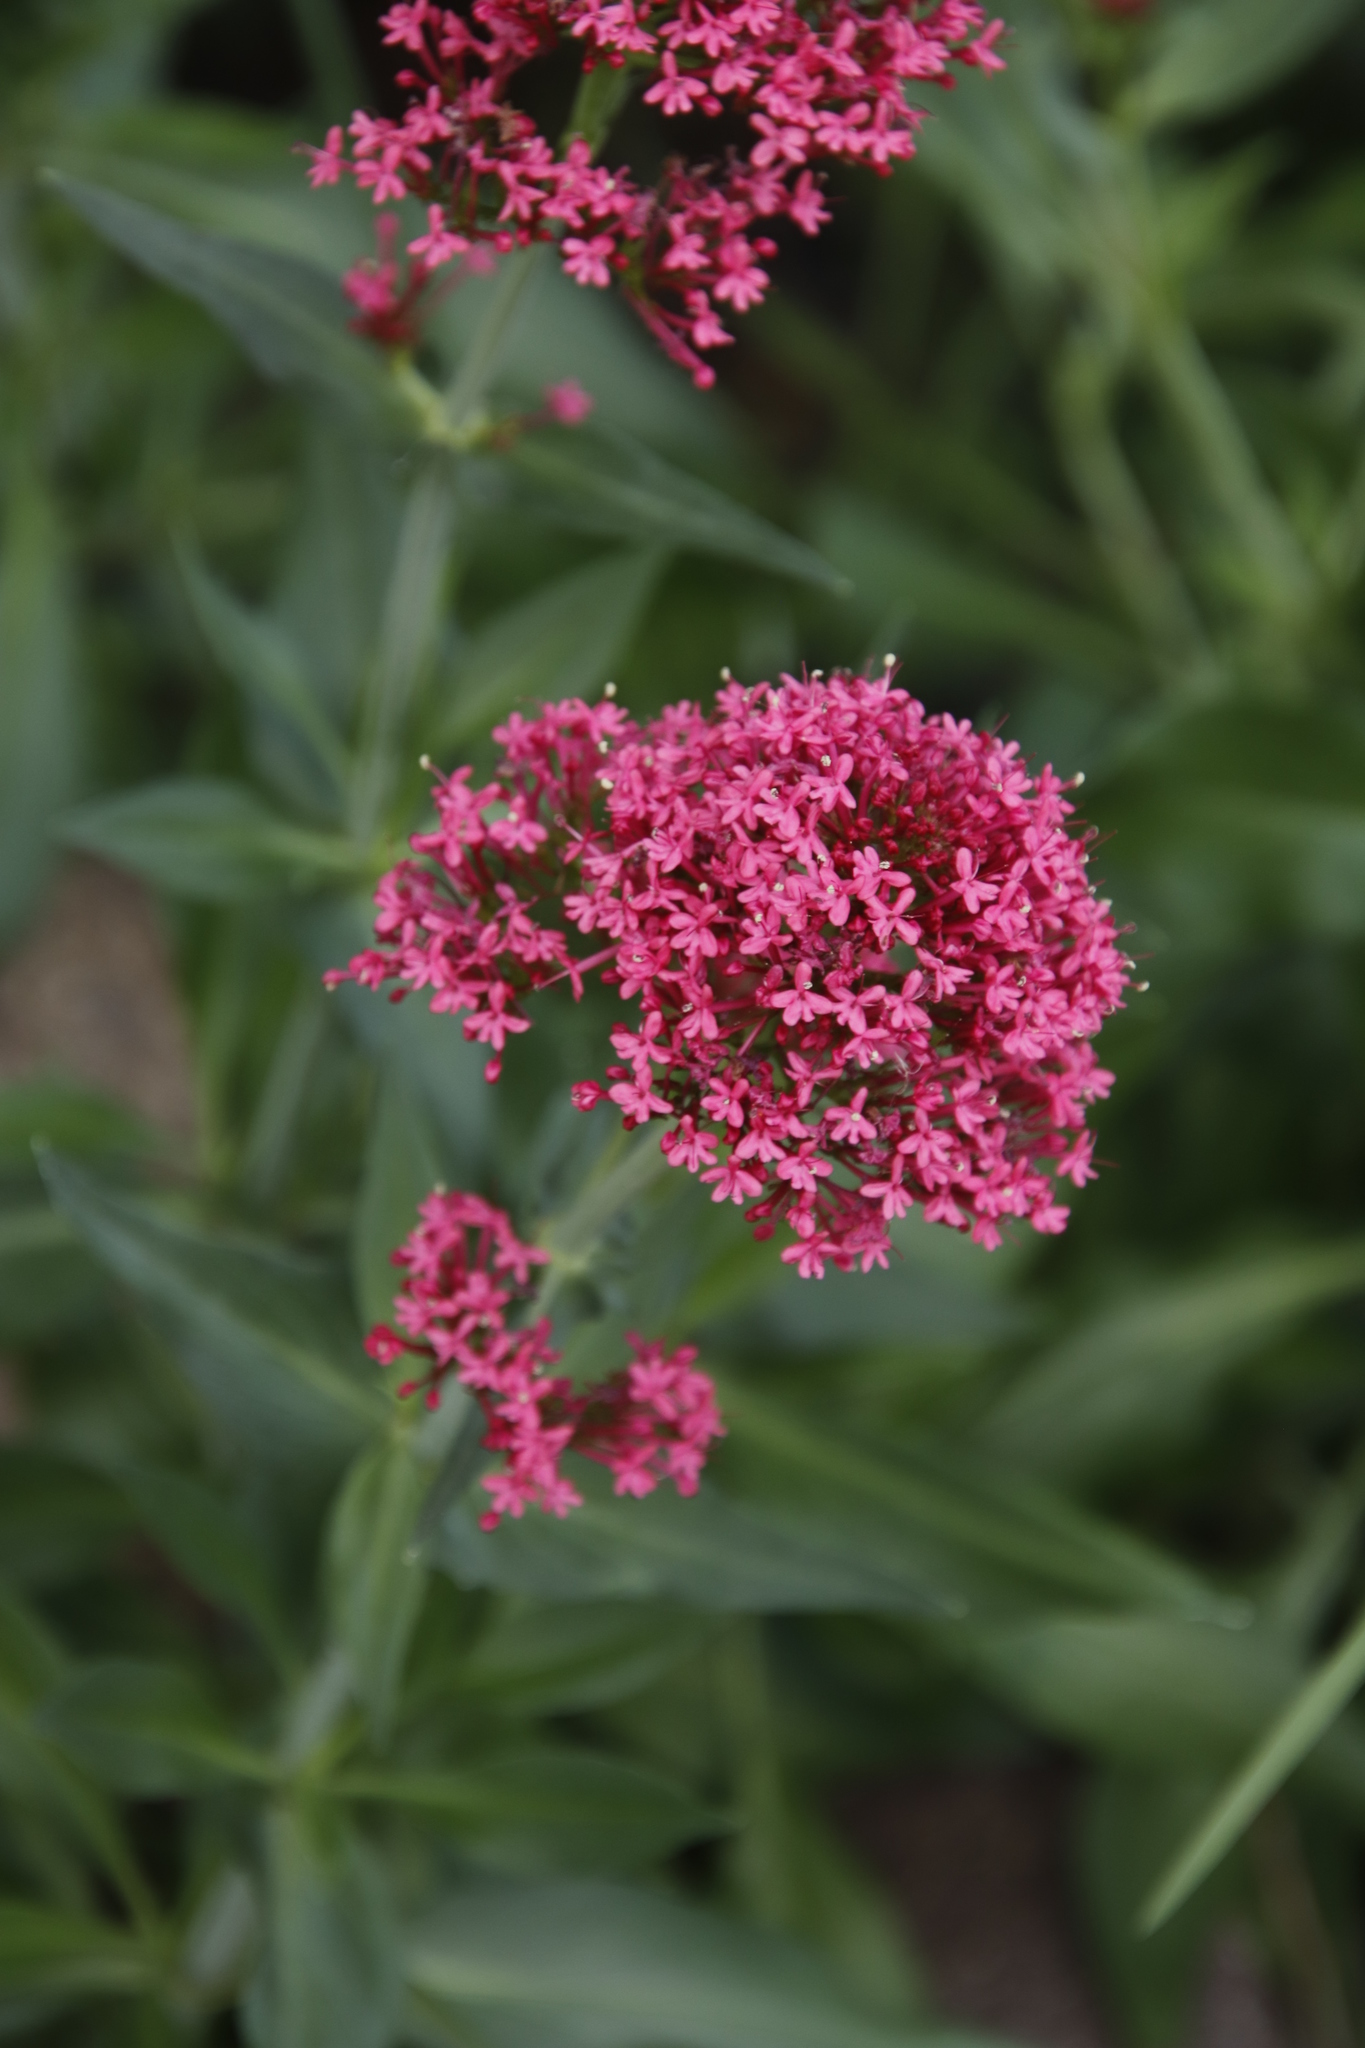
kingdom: Plantae
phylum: Tracheophyta
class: Magnoliopsida
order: Dipsacales
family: Caprifoliaceae
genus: Centranthus
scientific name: Centranthus ruber
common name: Red valerian
